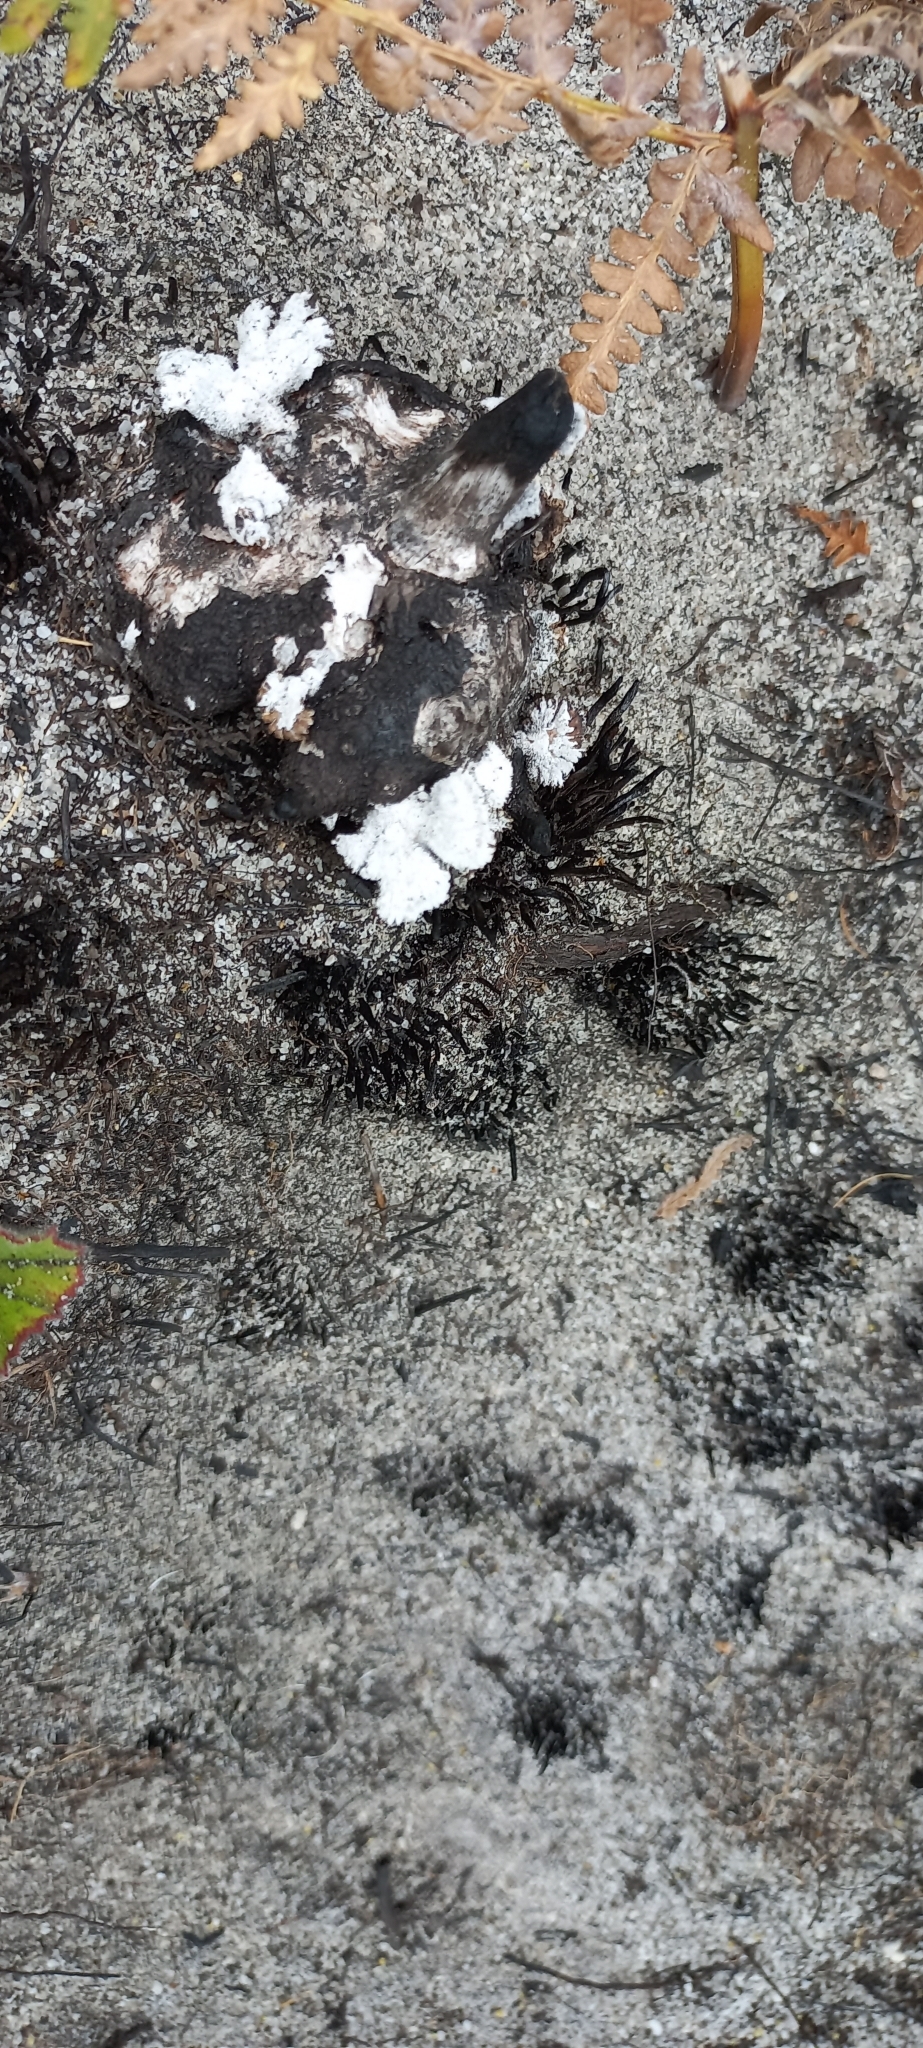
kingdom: Fungi
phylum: Basidiomycota
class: Agaricomycetes
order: Agaricales
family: Schizophyllaceae
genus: Schizophyllum
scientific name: Schizophyllum commune
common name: Common porecrust
